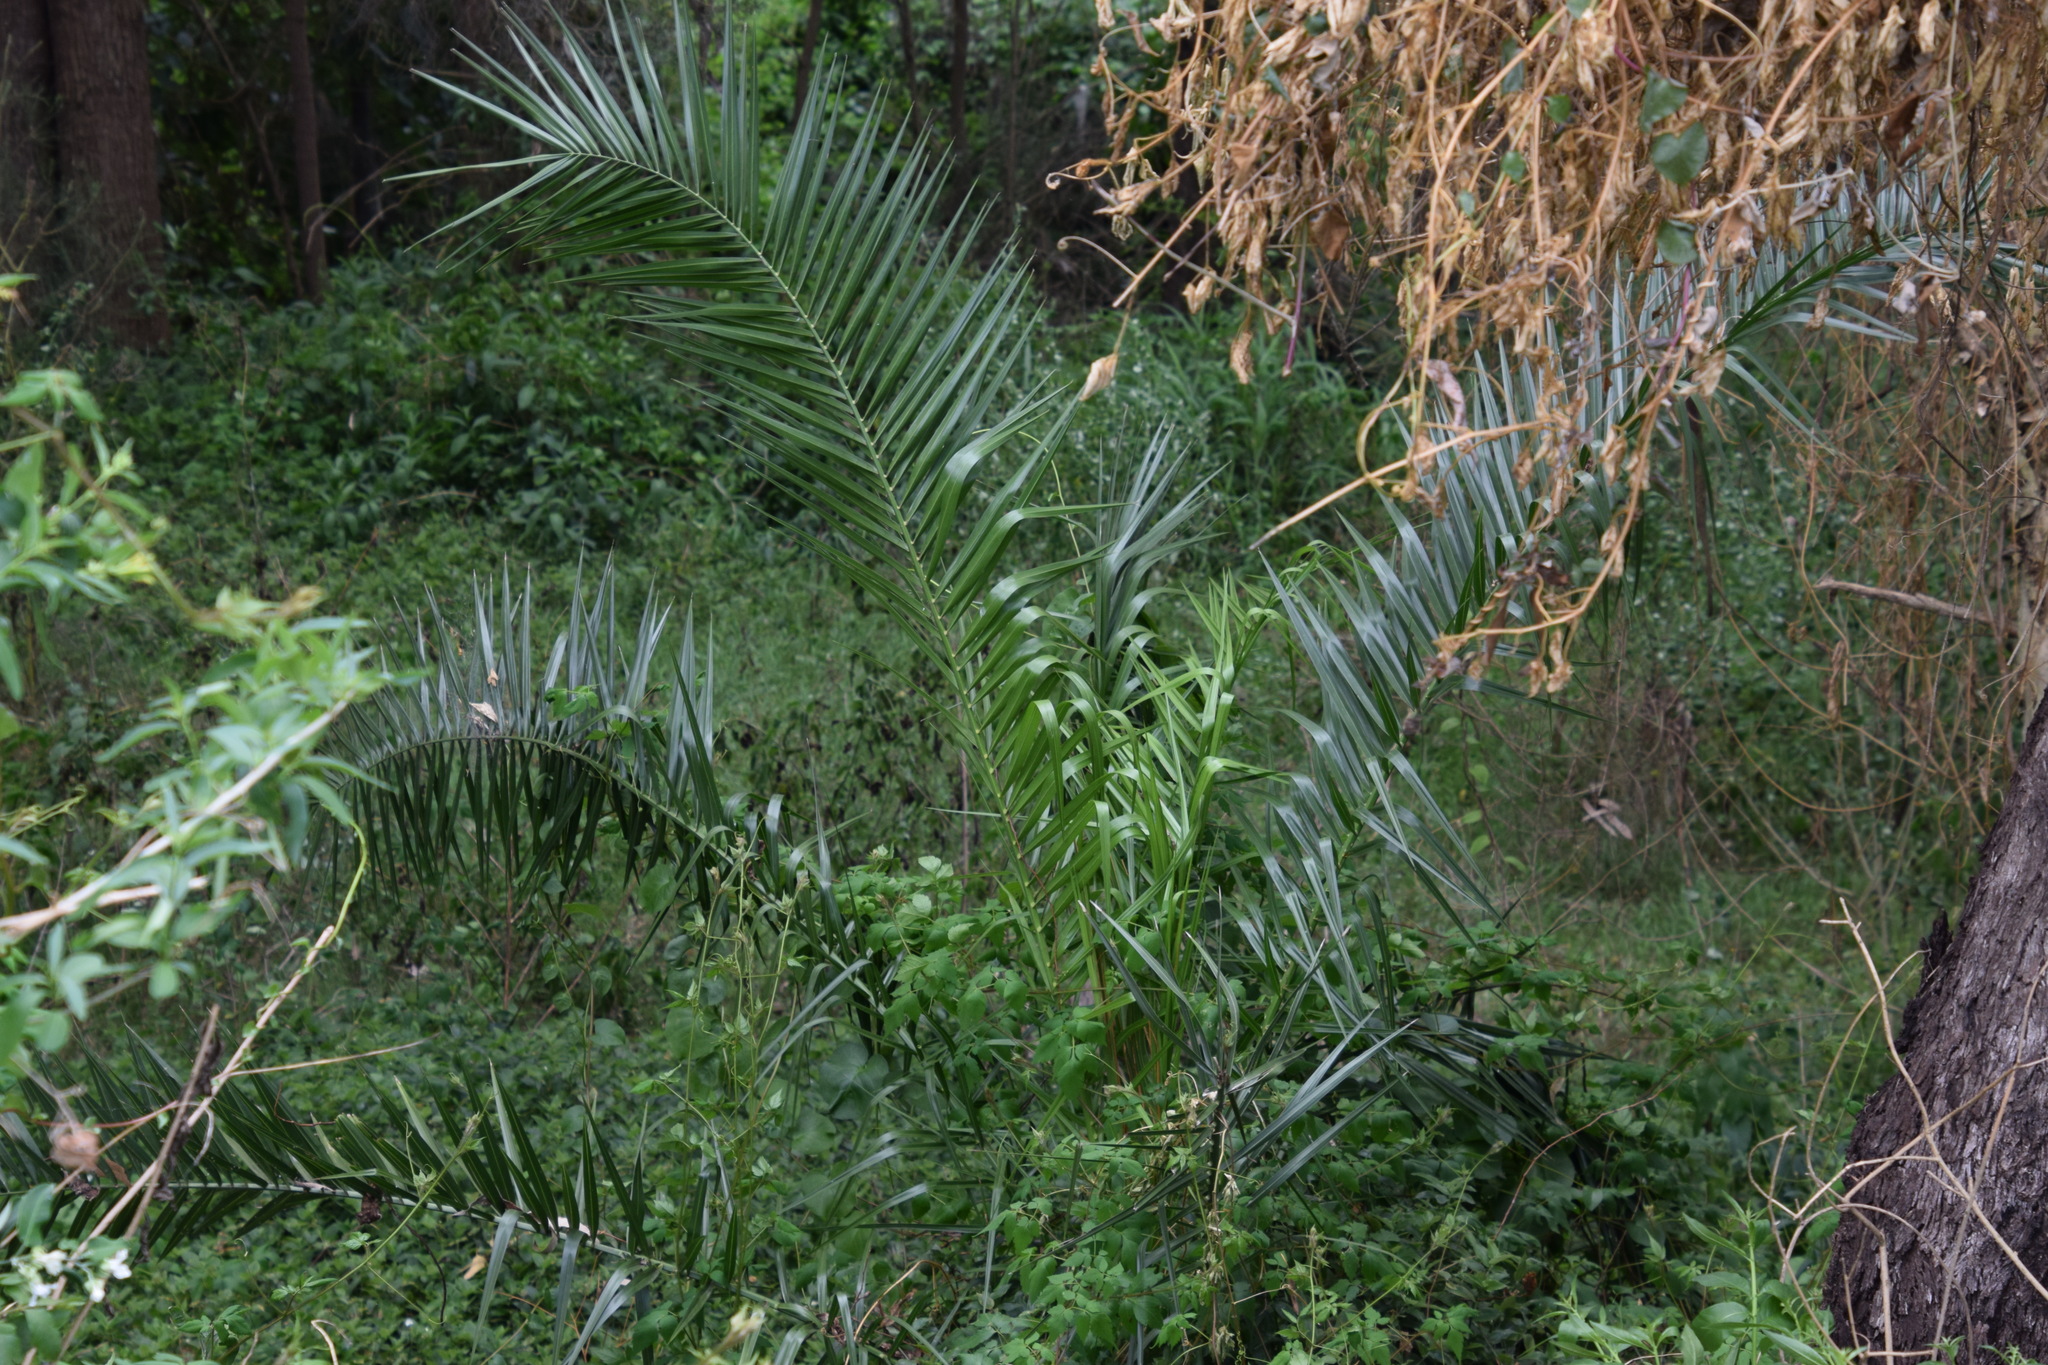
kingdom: Plantae
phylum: Tracheophyta
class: Liliopsida
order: Arecales
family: Arecaceae
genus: Phoenix
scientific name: Phoenix canariensis
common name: Canary island date palm
